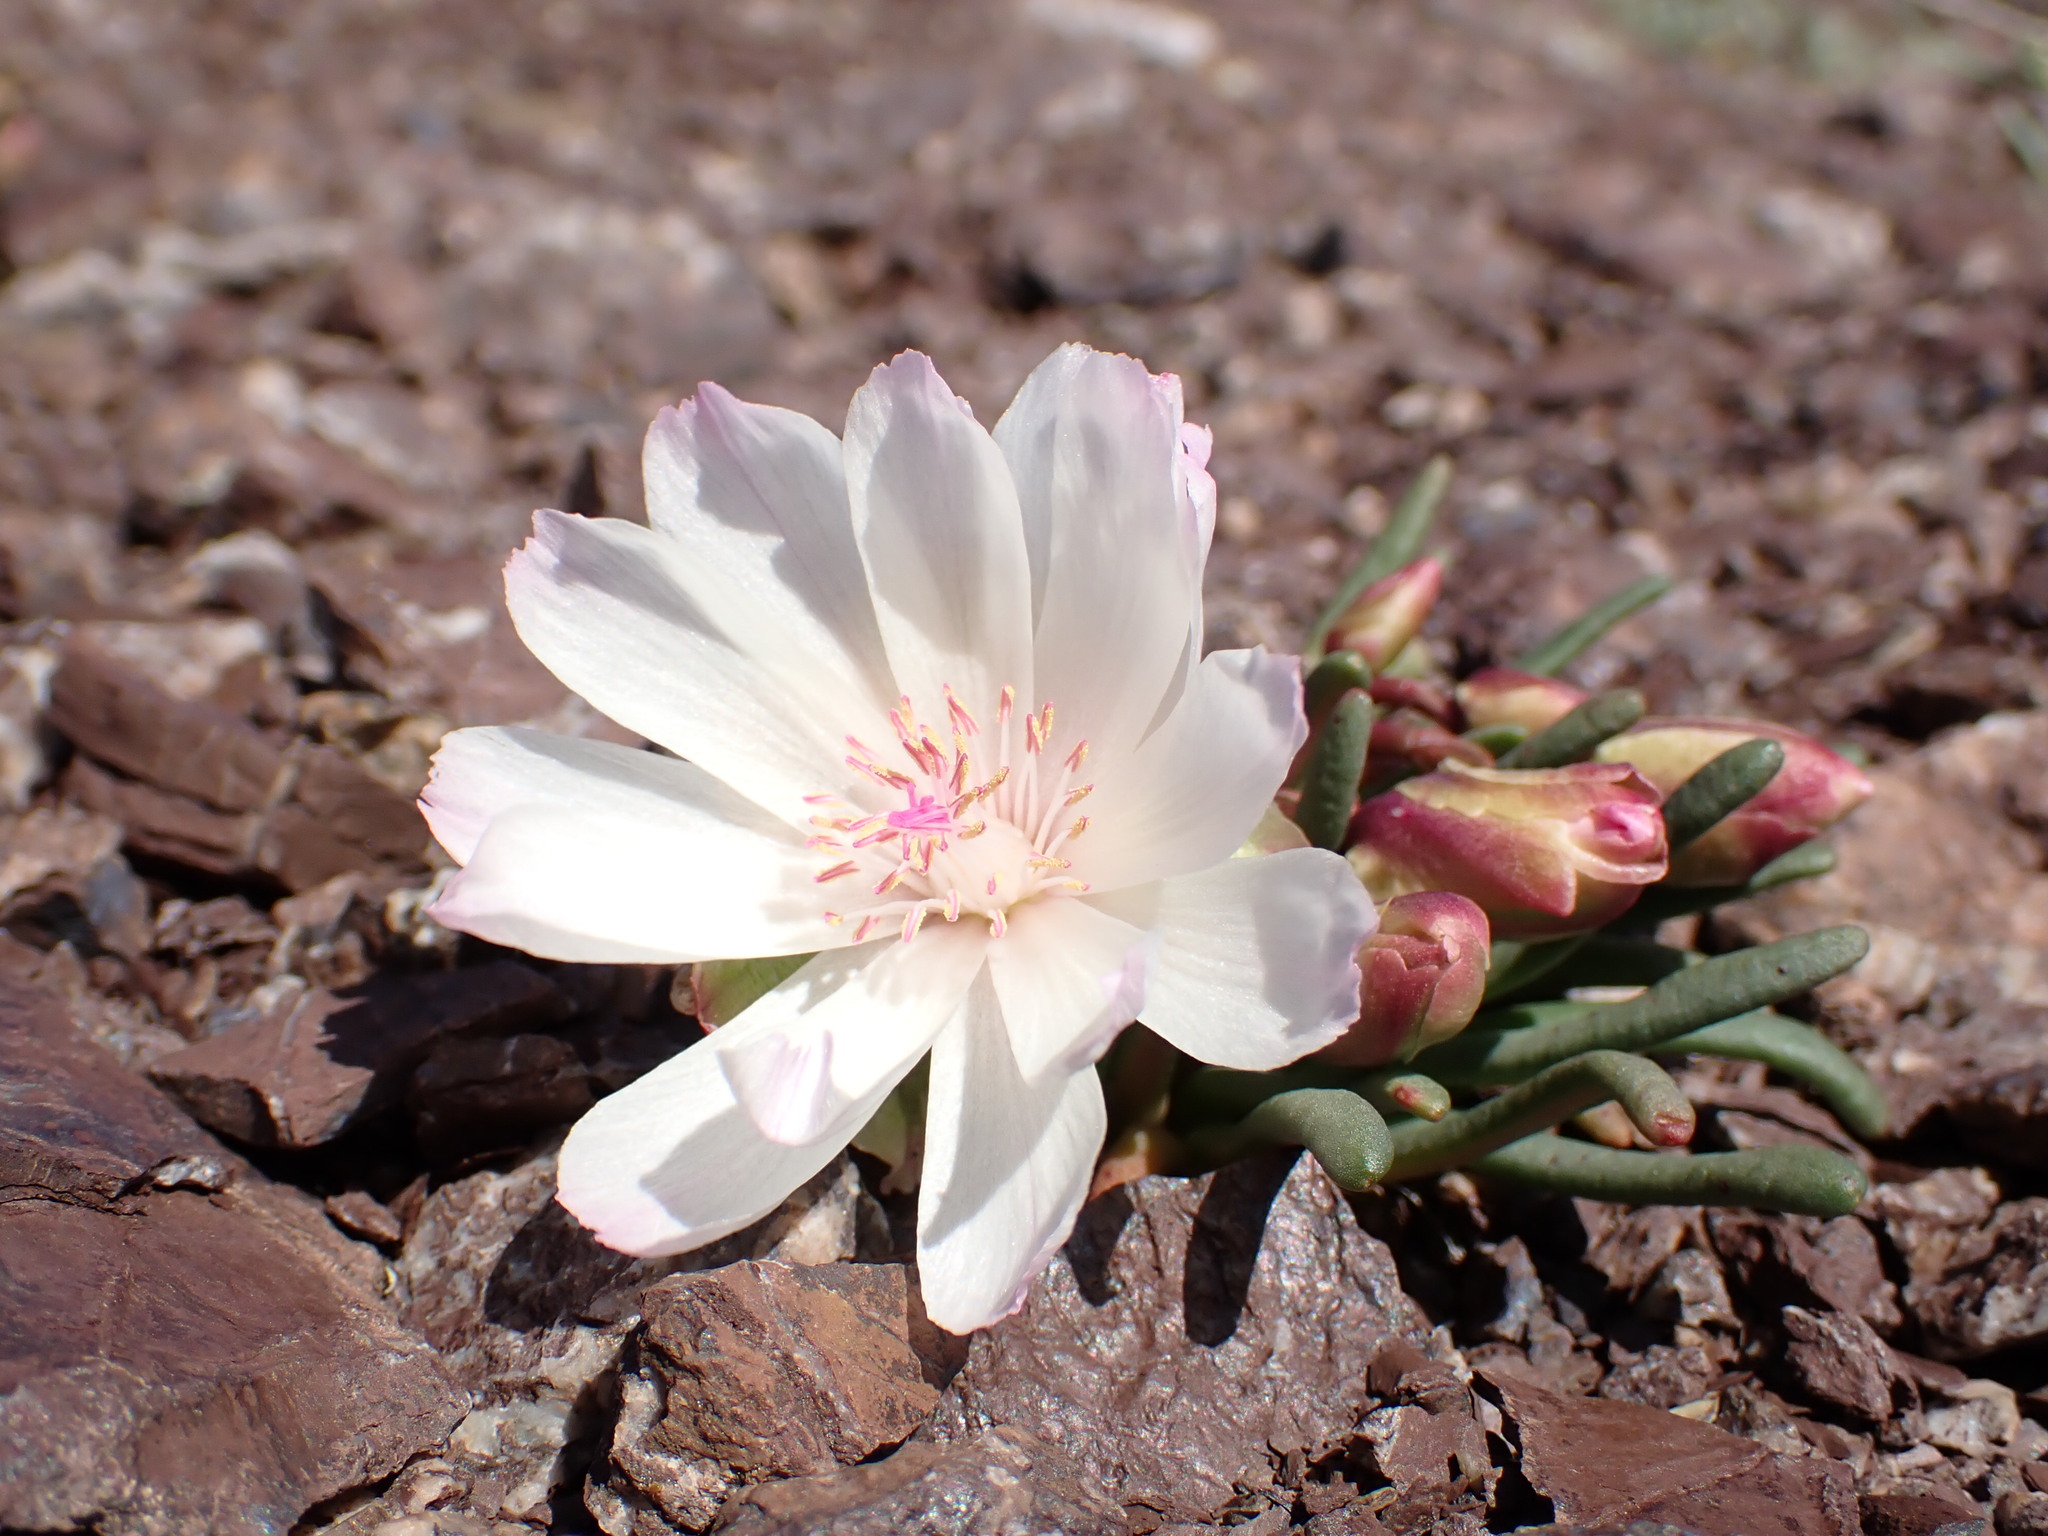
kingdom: Plantae
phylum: Tracheophyta
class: Magnoliopsida
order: Caryophyllales
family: Montiaceae
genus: Lewisia
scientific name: Lewisia rediviva
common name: Bitter-root
